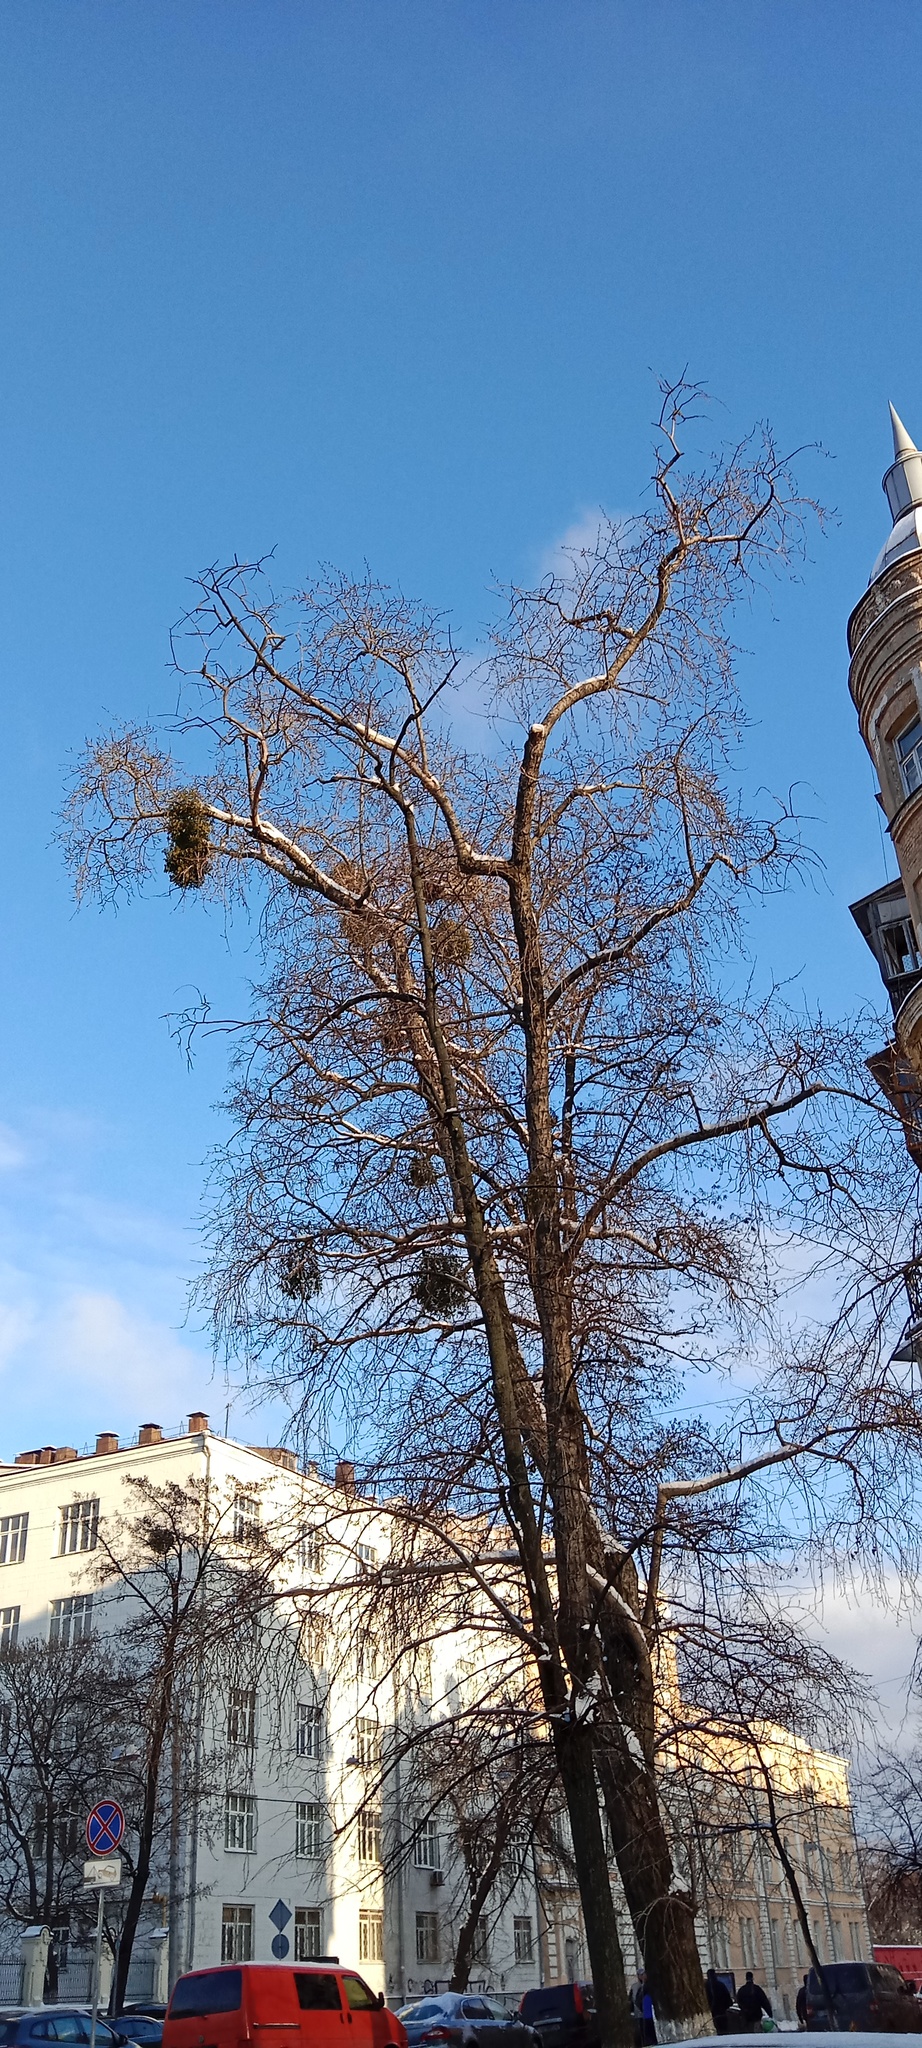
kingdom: Plantae
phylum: Tracheophyta
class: Magnoliopsida
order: Santalales
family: Viscaceae
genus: Viscum
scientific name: Viscum album
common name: Mistletoe
